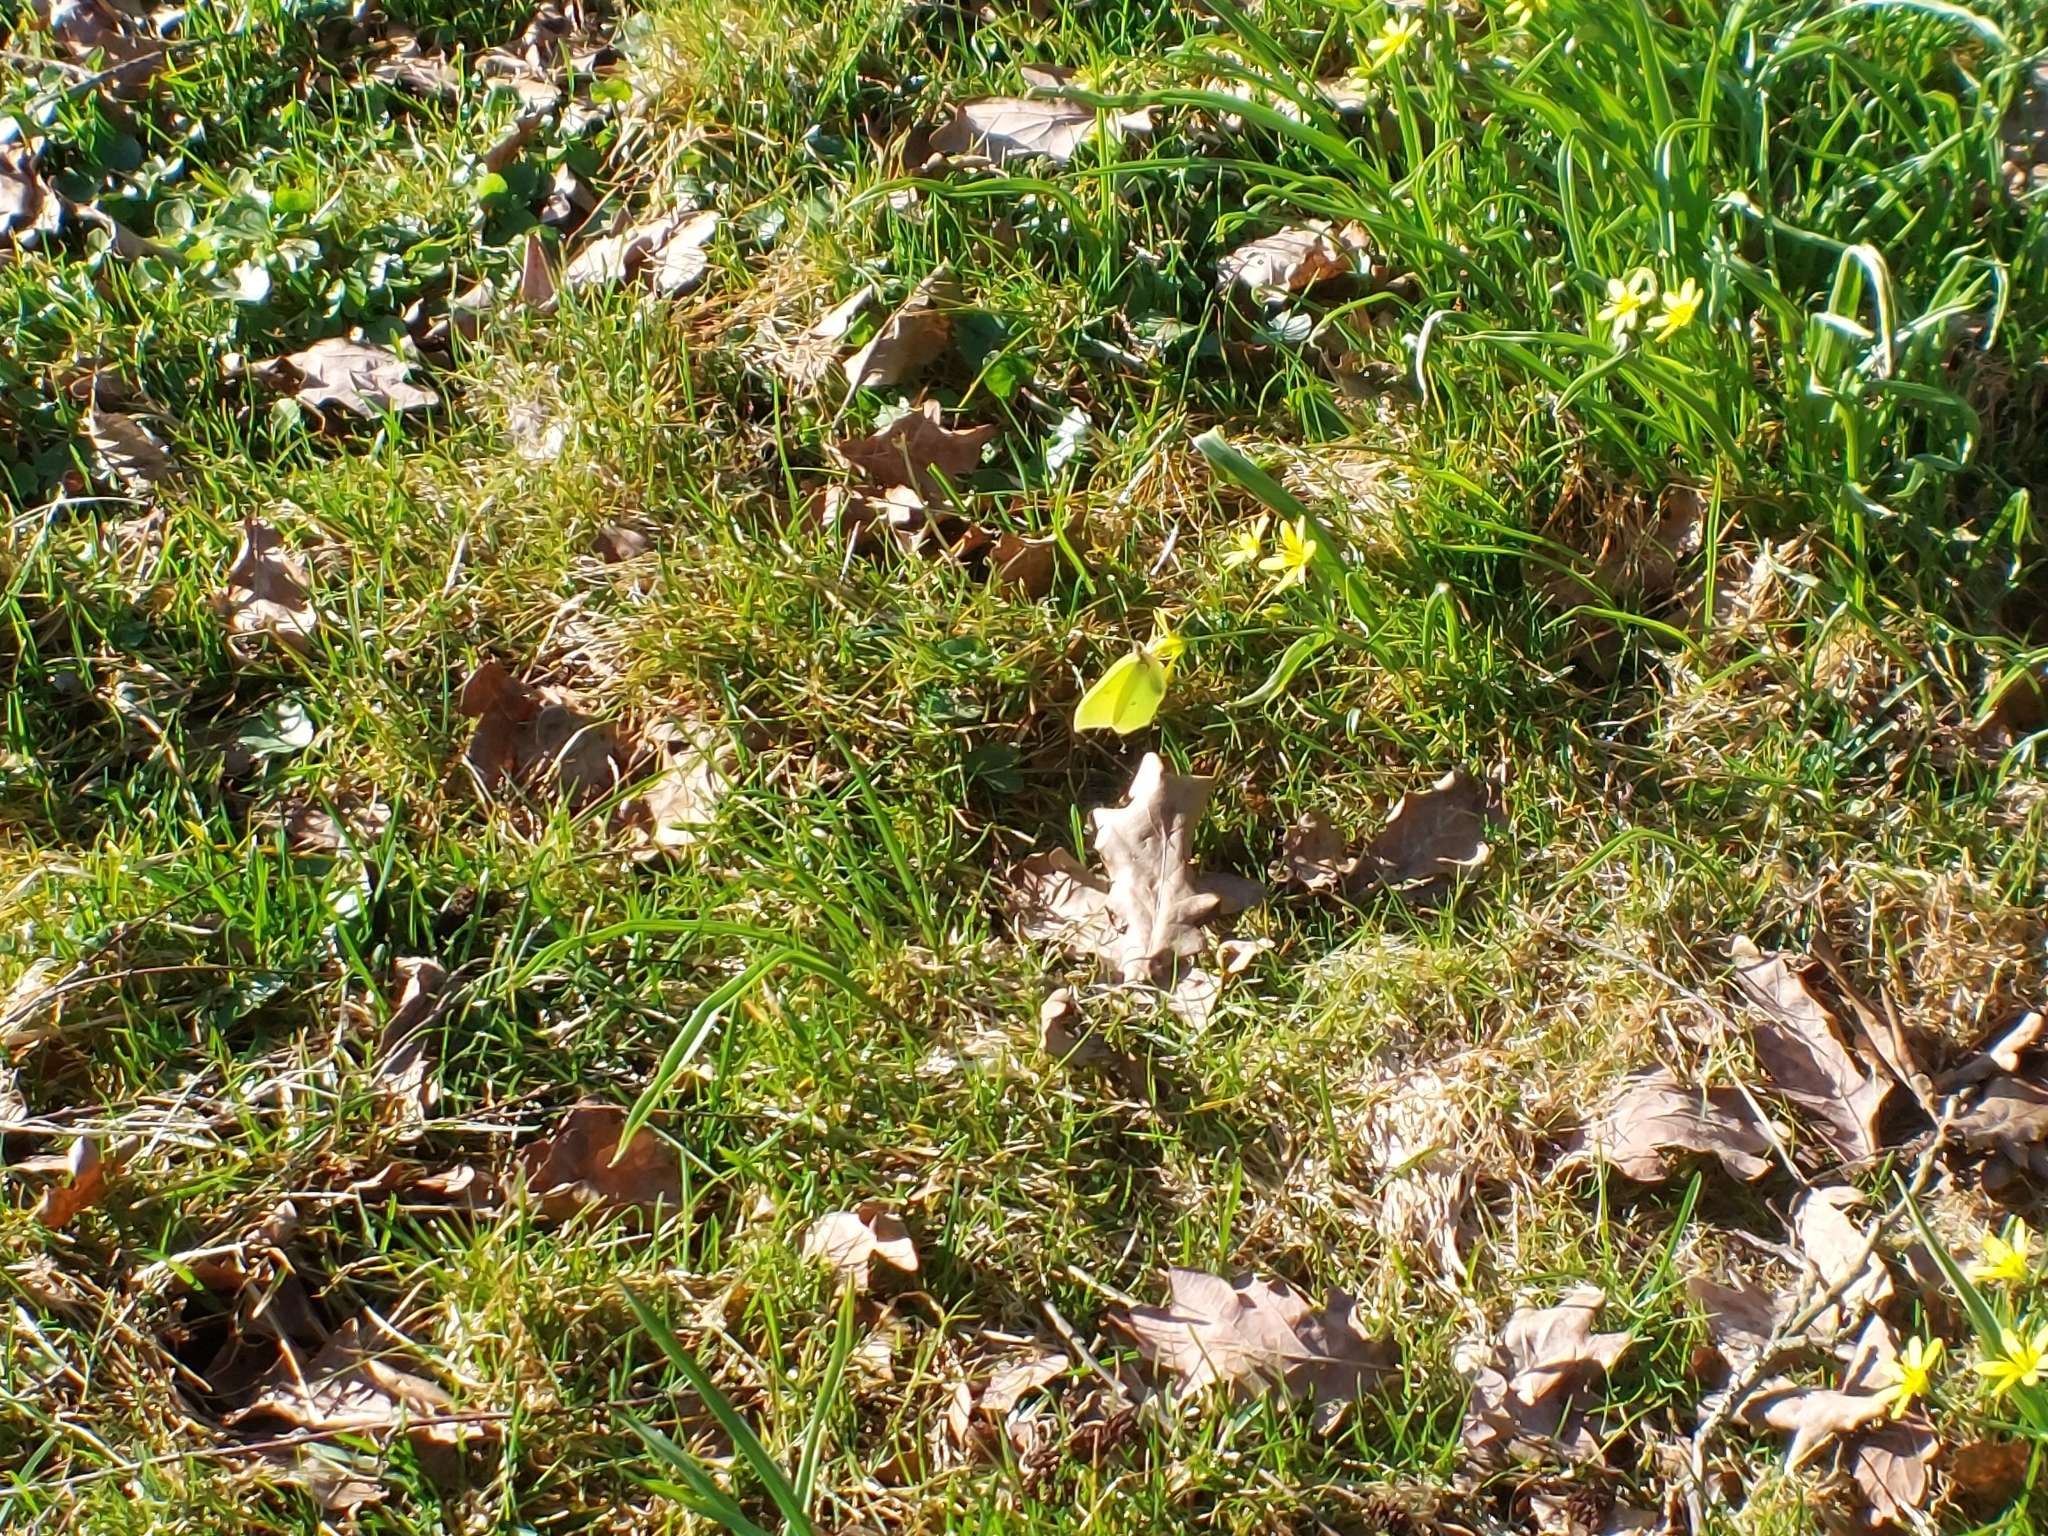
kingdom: Animalia
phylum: Arthropoda
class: Insecta
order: Lepidoptera
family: Pieridae
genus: Gonepteryx
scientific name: Gonepteryx rhamni
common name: Brimstone
